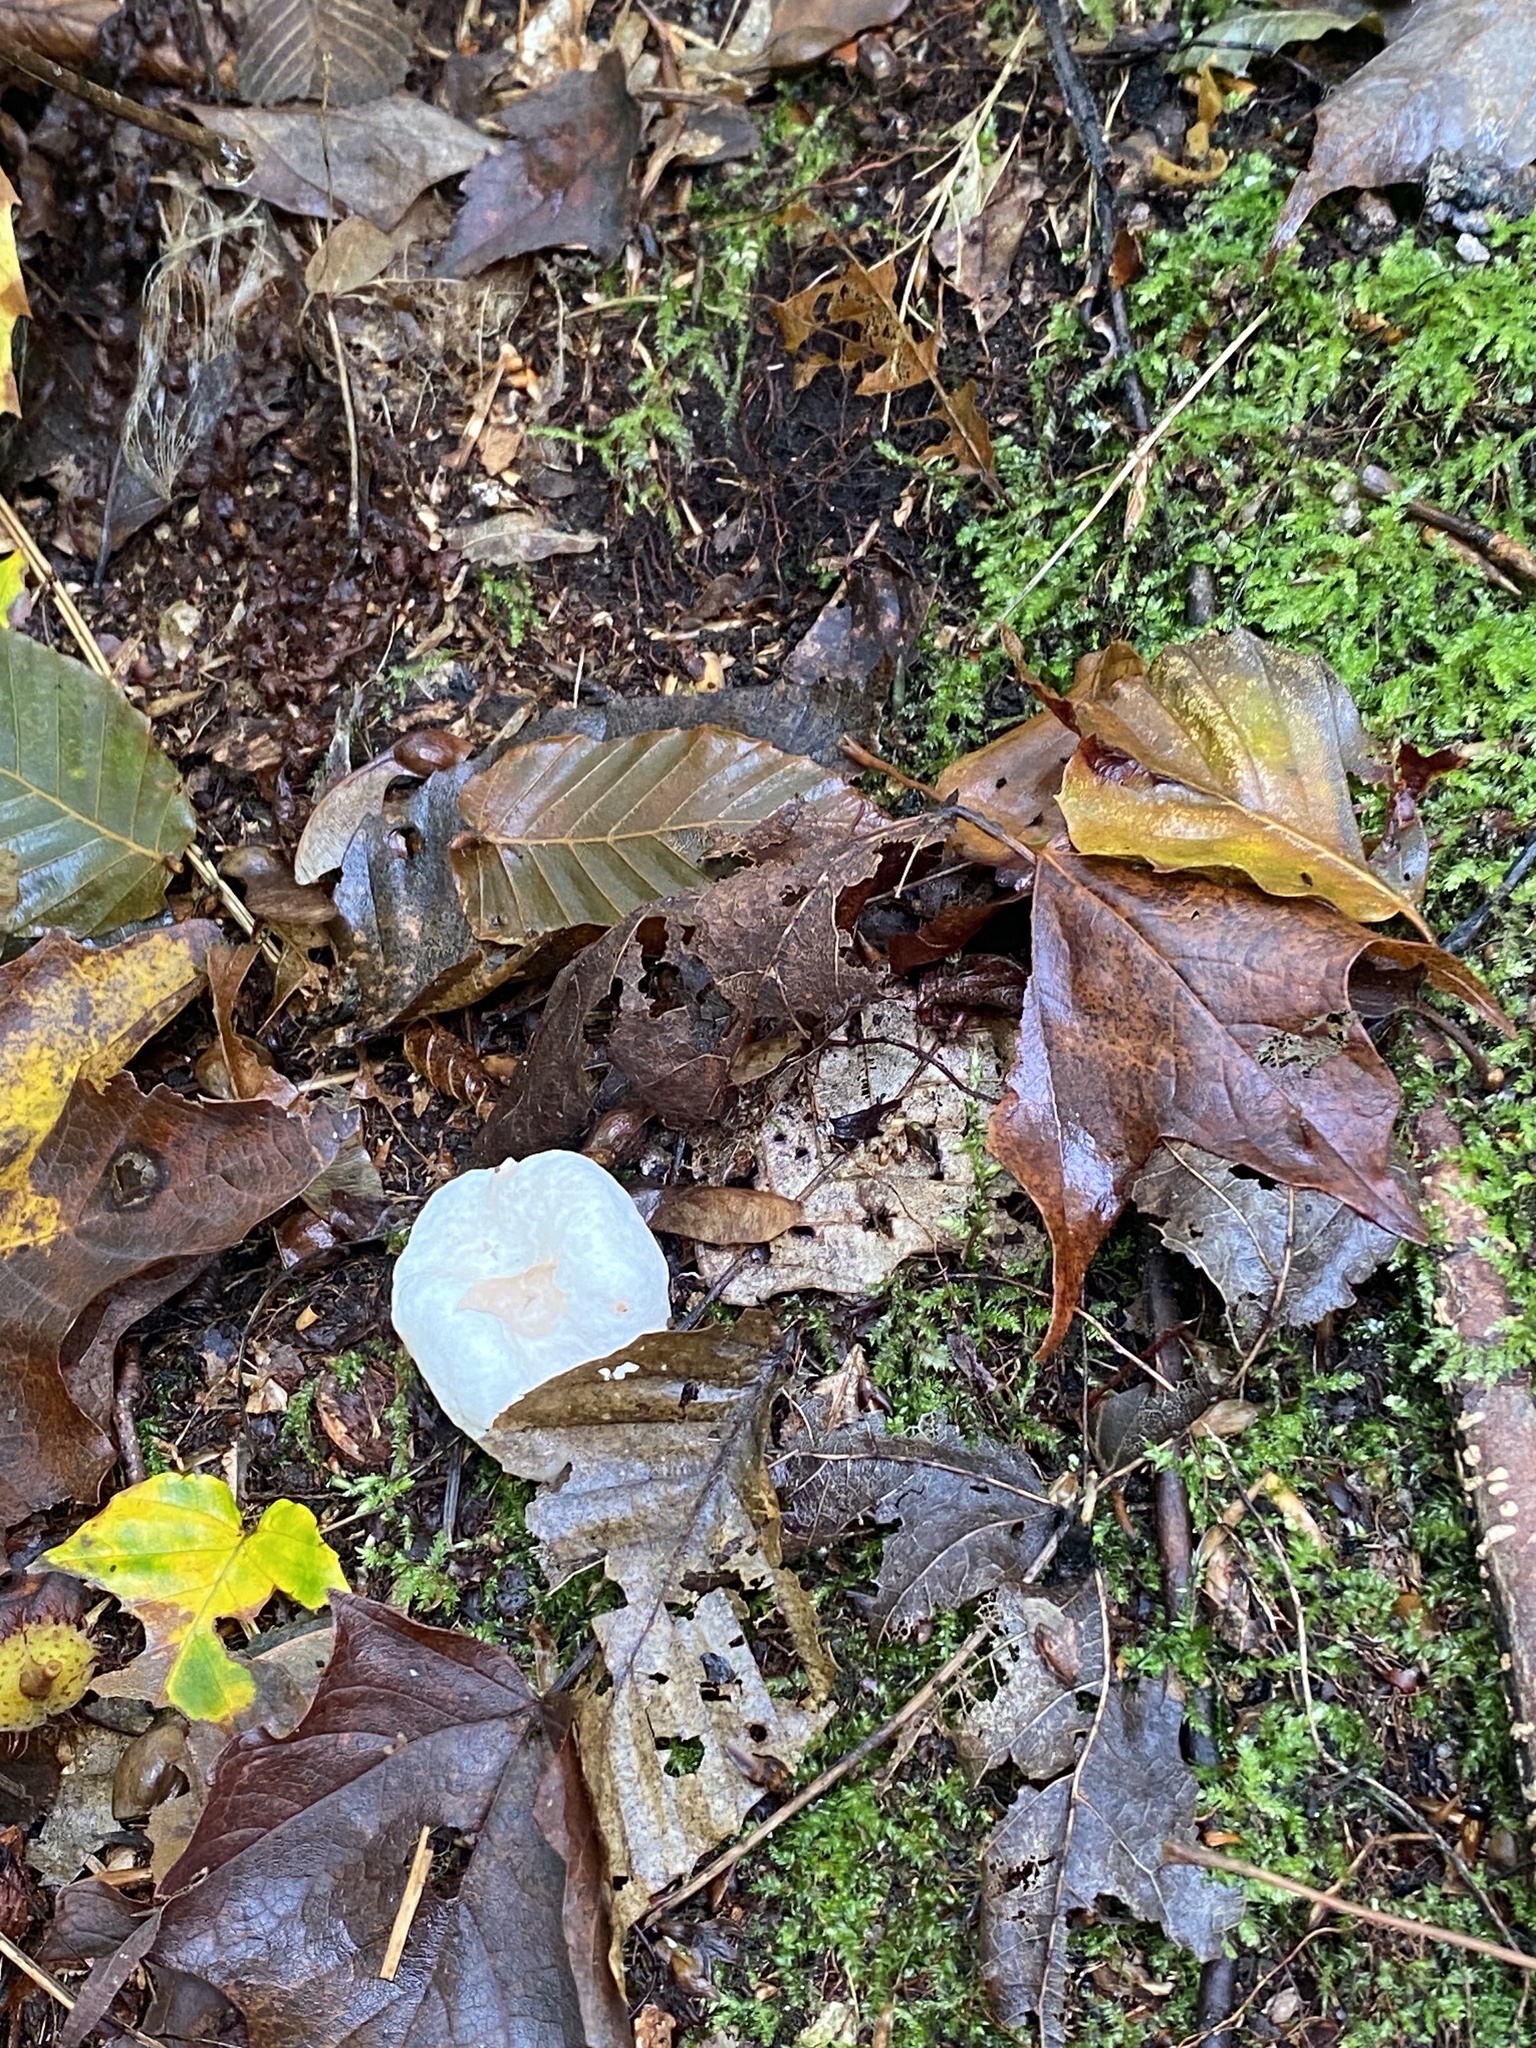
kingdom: Fungi
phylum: Basidiomycota
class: Agaricomycetes
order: Agaricales
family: Entolomataceae
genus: Entoloma
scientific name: Entoloma abortivum
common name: Aborted entoloma
